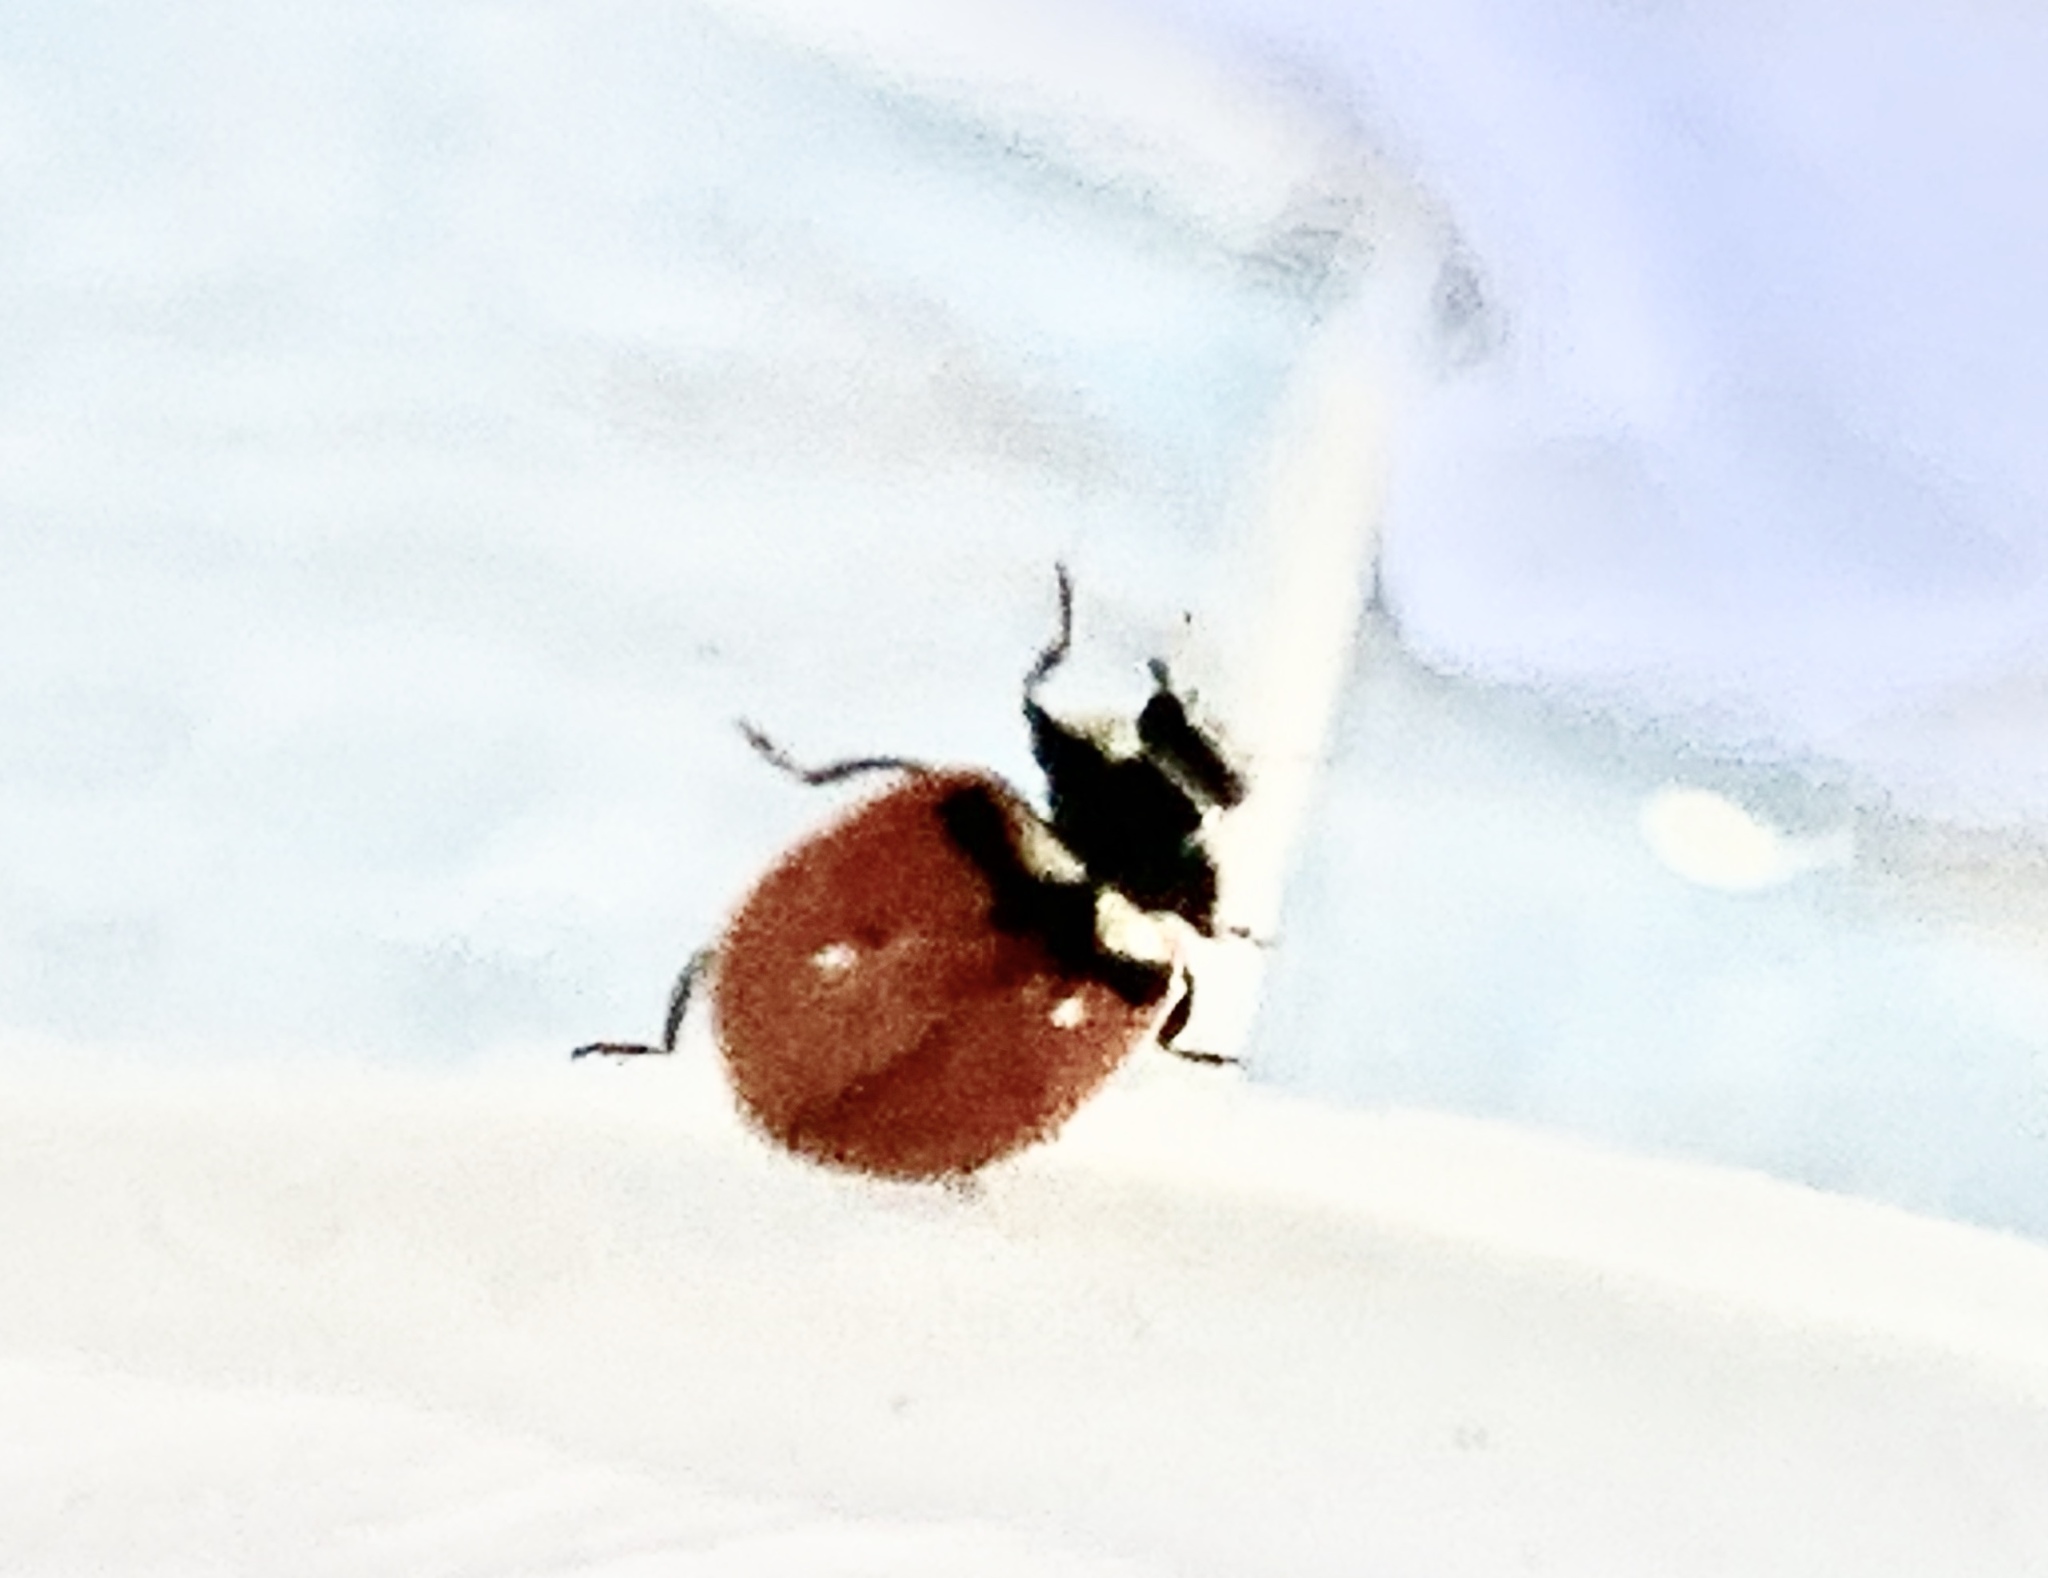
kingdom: Animalia
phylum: Arthropoda
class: Insecta
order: Coleoptera
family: Coccinellidae
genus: Coccinella
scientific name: Coccinella trifasciata
